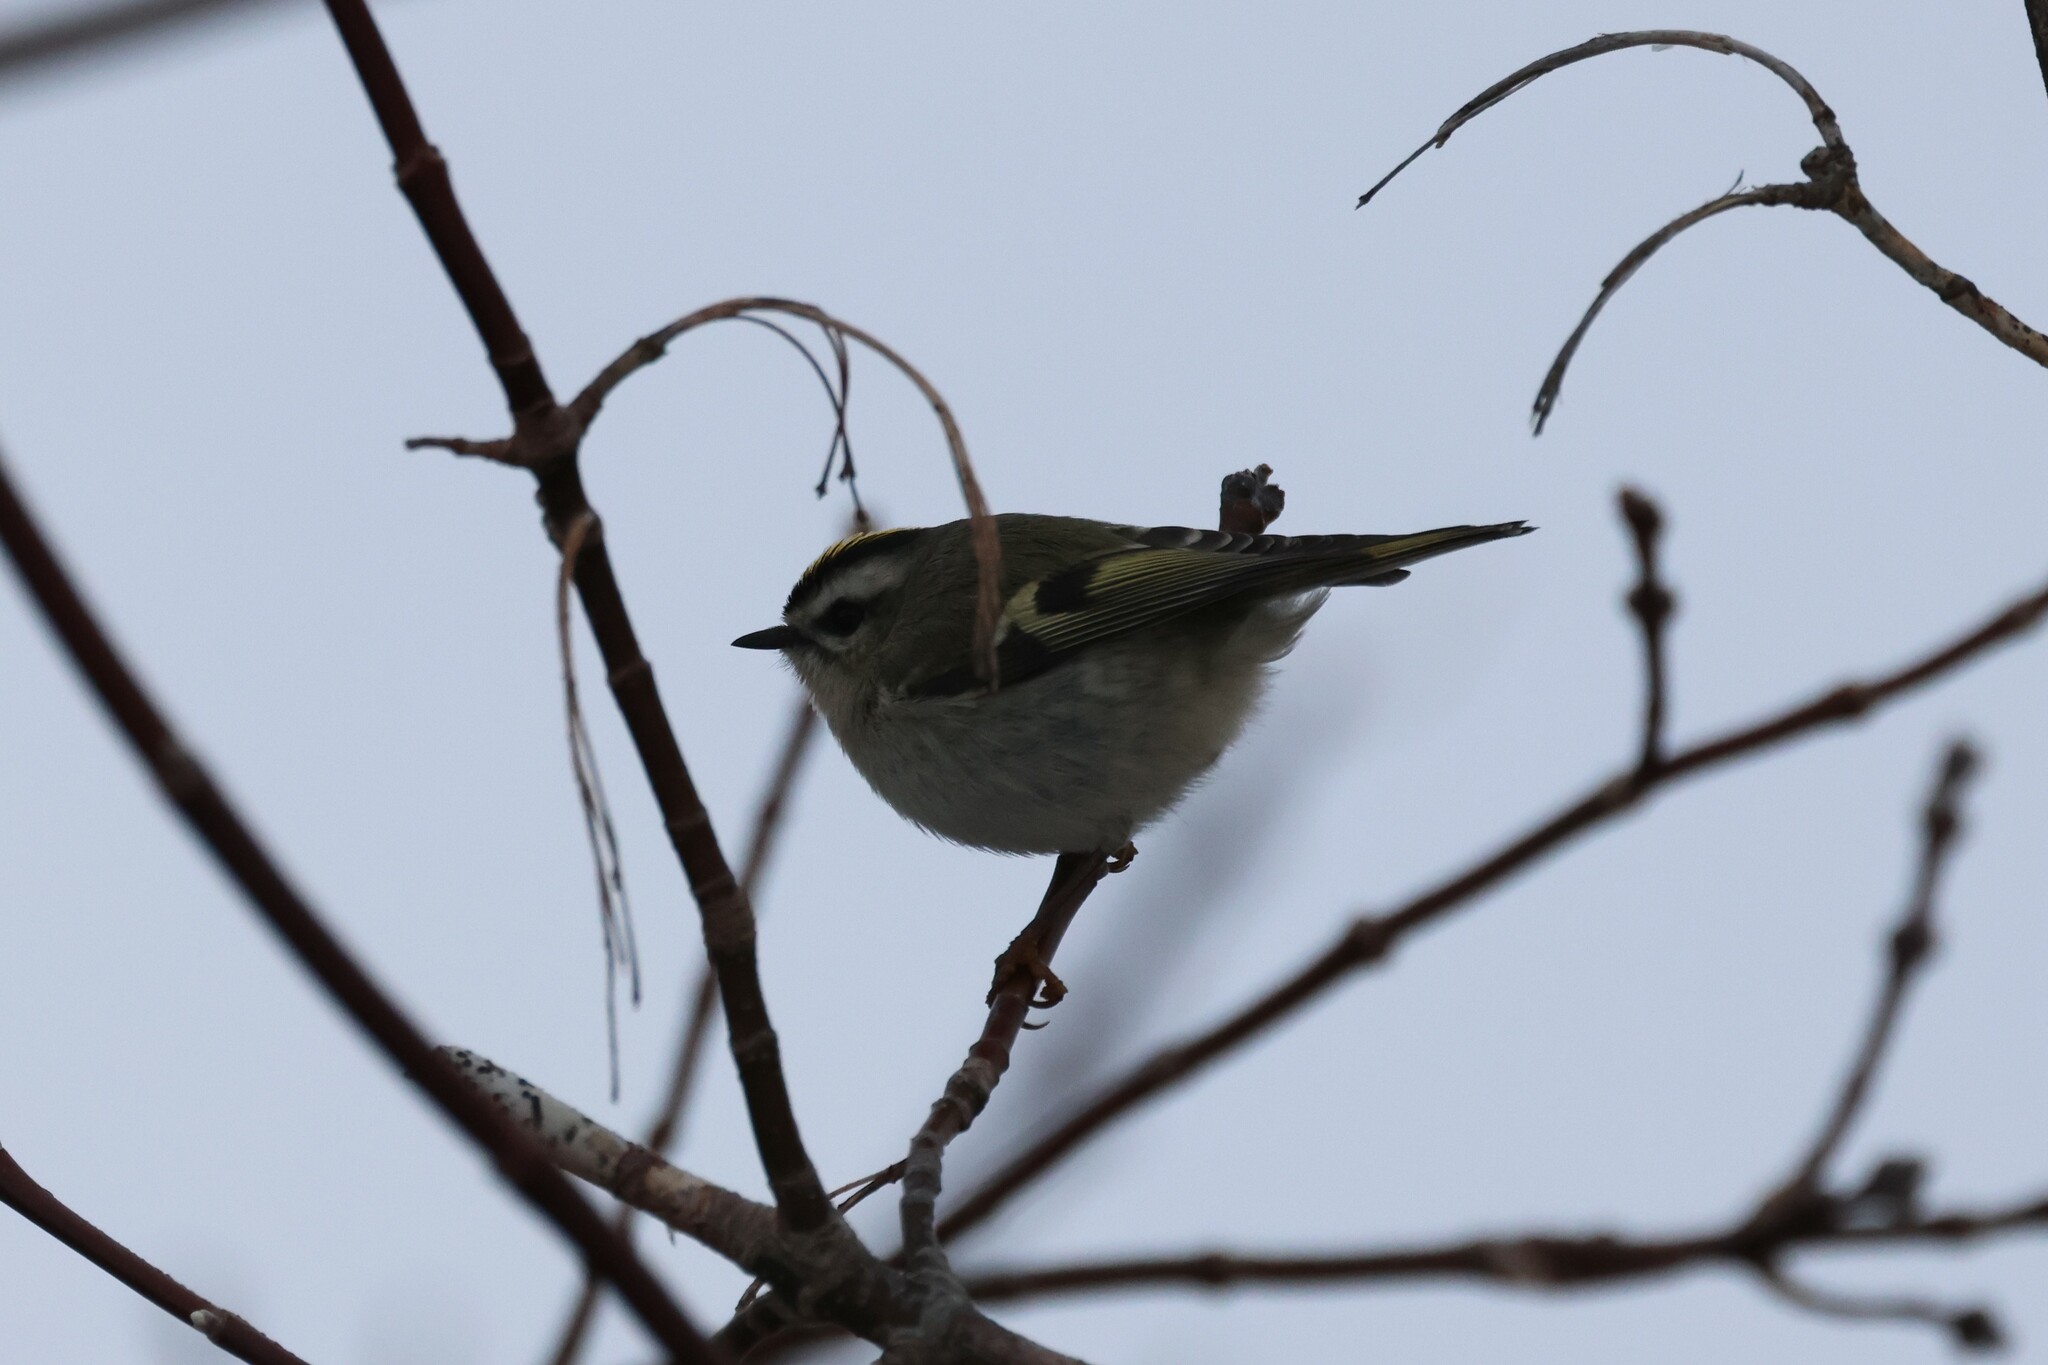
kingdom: Animalia
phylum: Chordata
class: Aves
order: Passeriformes
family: Regulidae
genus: Regulus
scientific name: Regulus satrapa
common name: Golden-crowned kinglet
